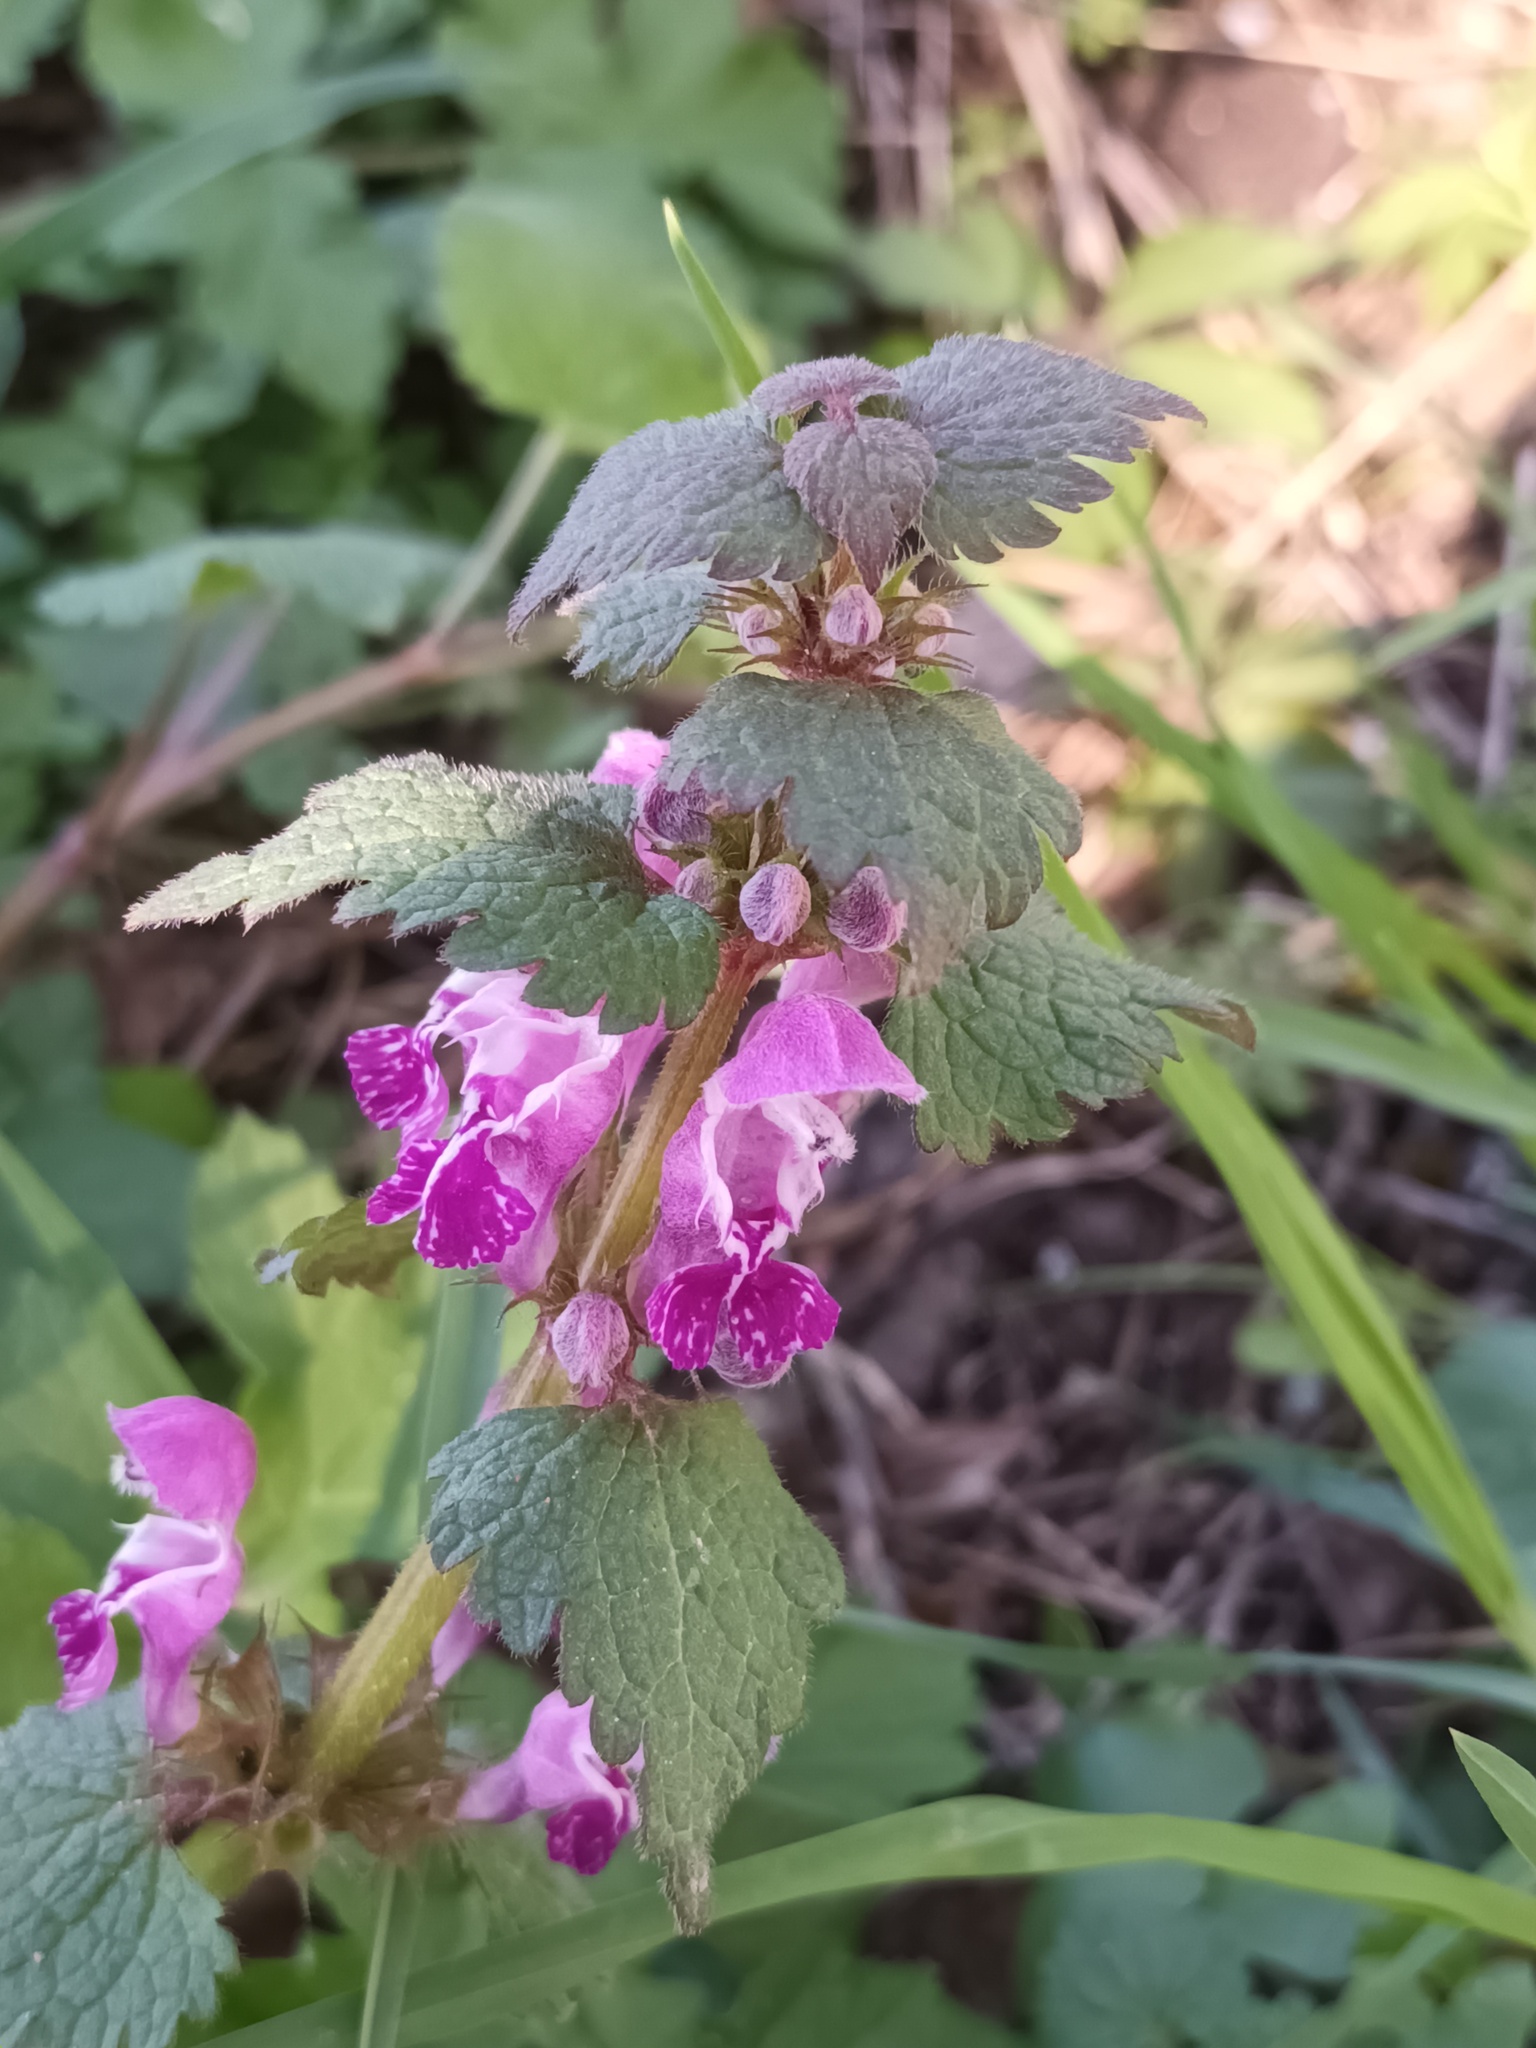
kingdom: Plantae
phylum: Tracheophyta
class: Magnoliopsida
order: Lamiales
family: Lamiaceae
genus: Lamium
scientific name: Lamium maculatum
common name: Spotted dead-nettle
